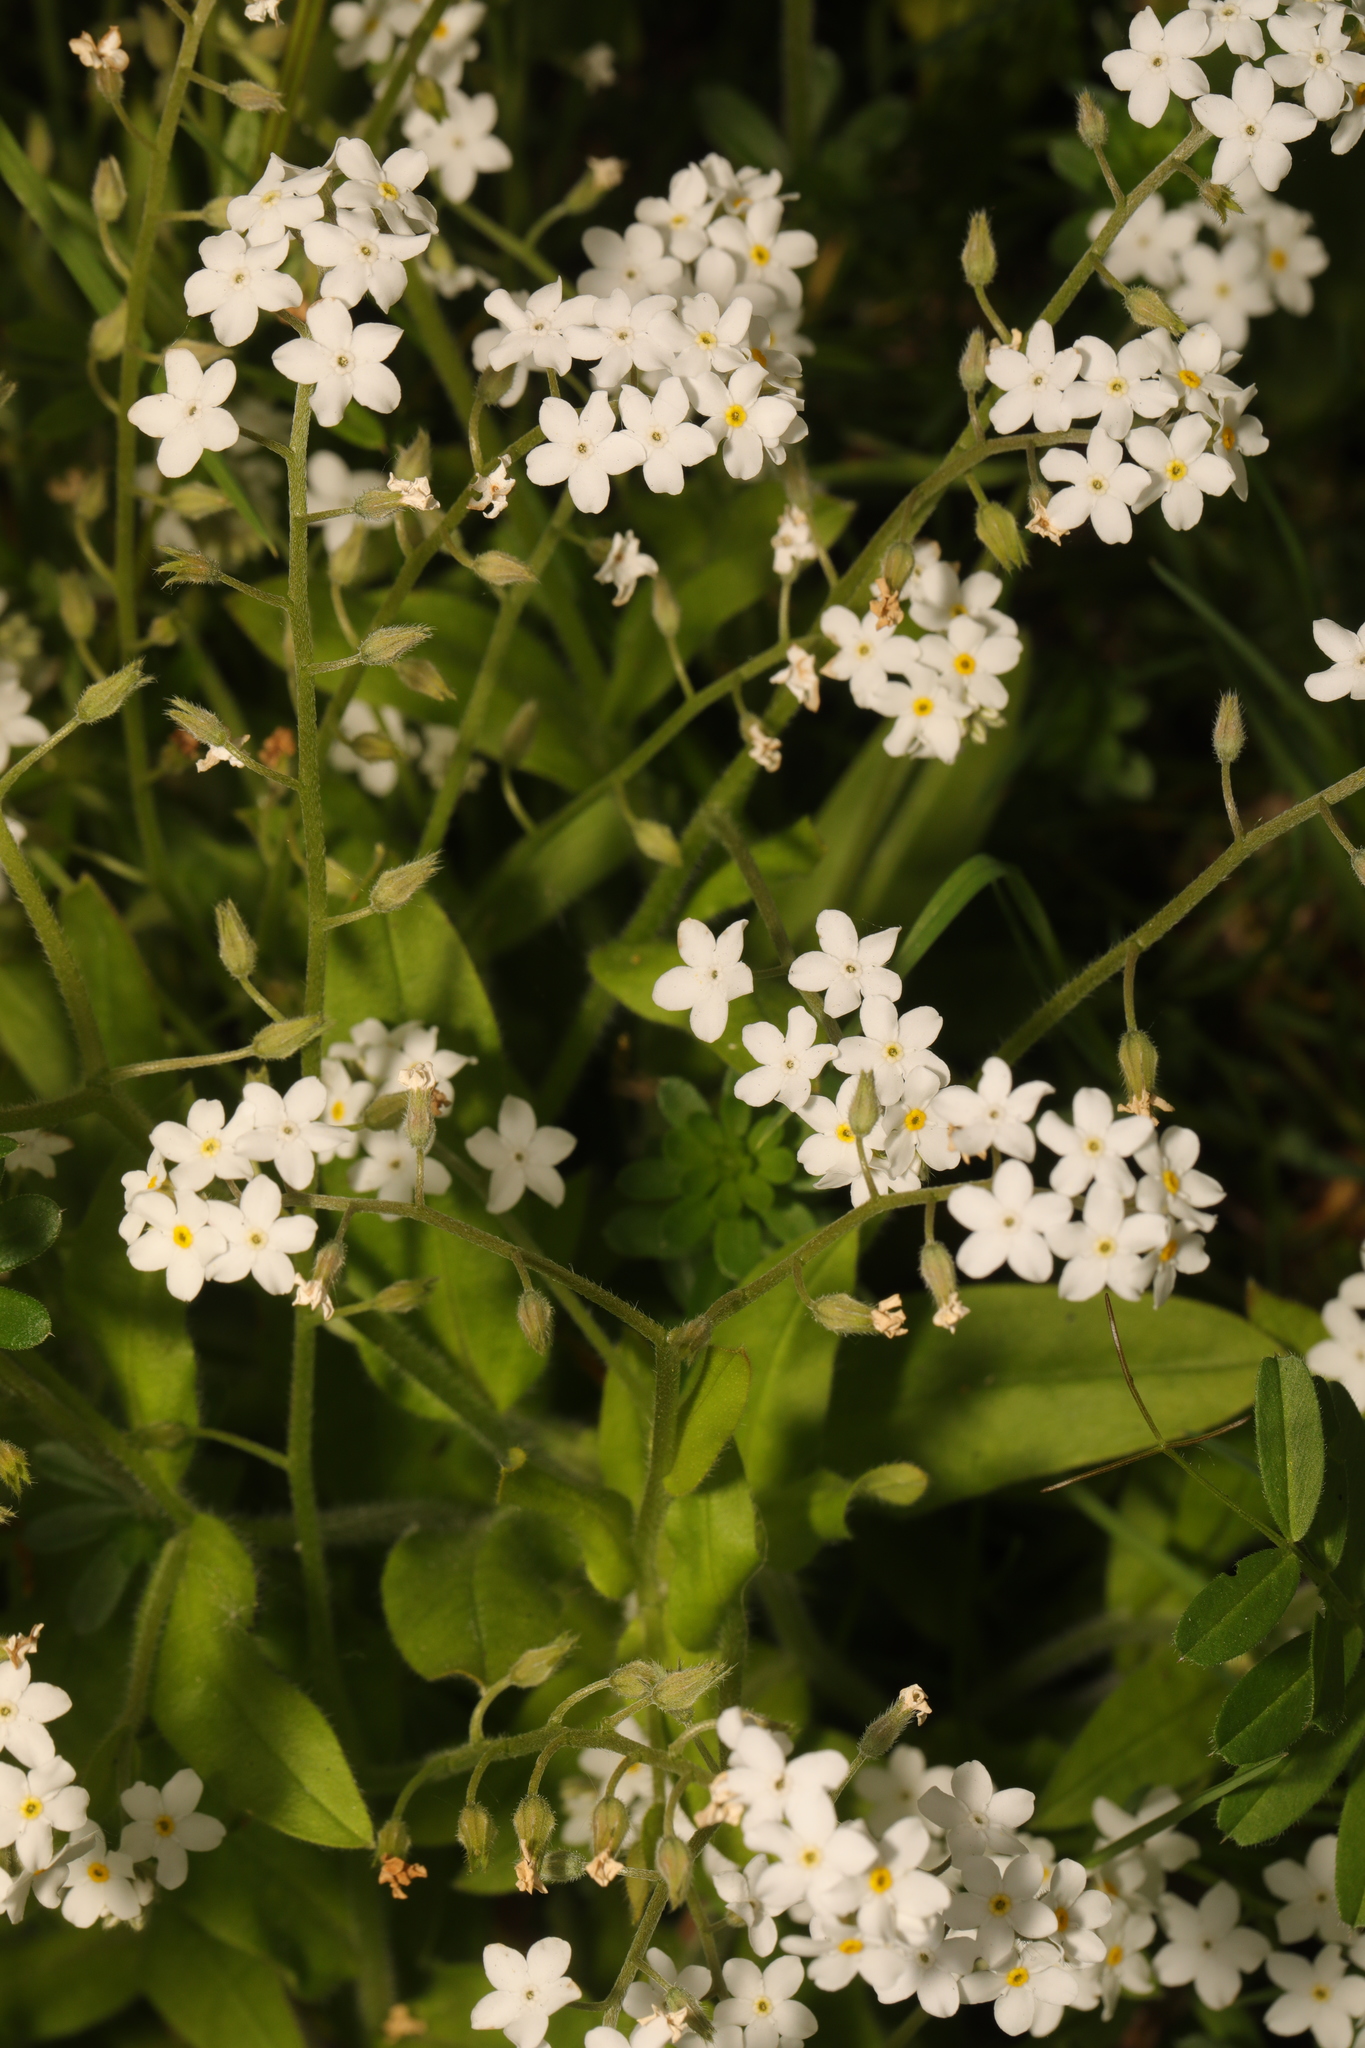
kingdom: Plantae
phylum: Tracheophyta
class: Magnoliopsida
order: Boraginales
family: Boraginaceae
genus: Myosotis
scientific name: Myosotis sylvatica
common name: Wood forget-me-not
